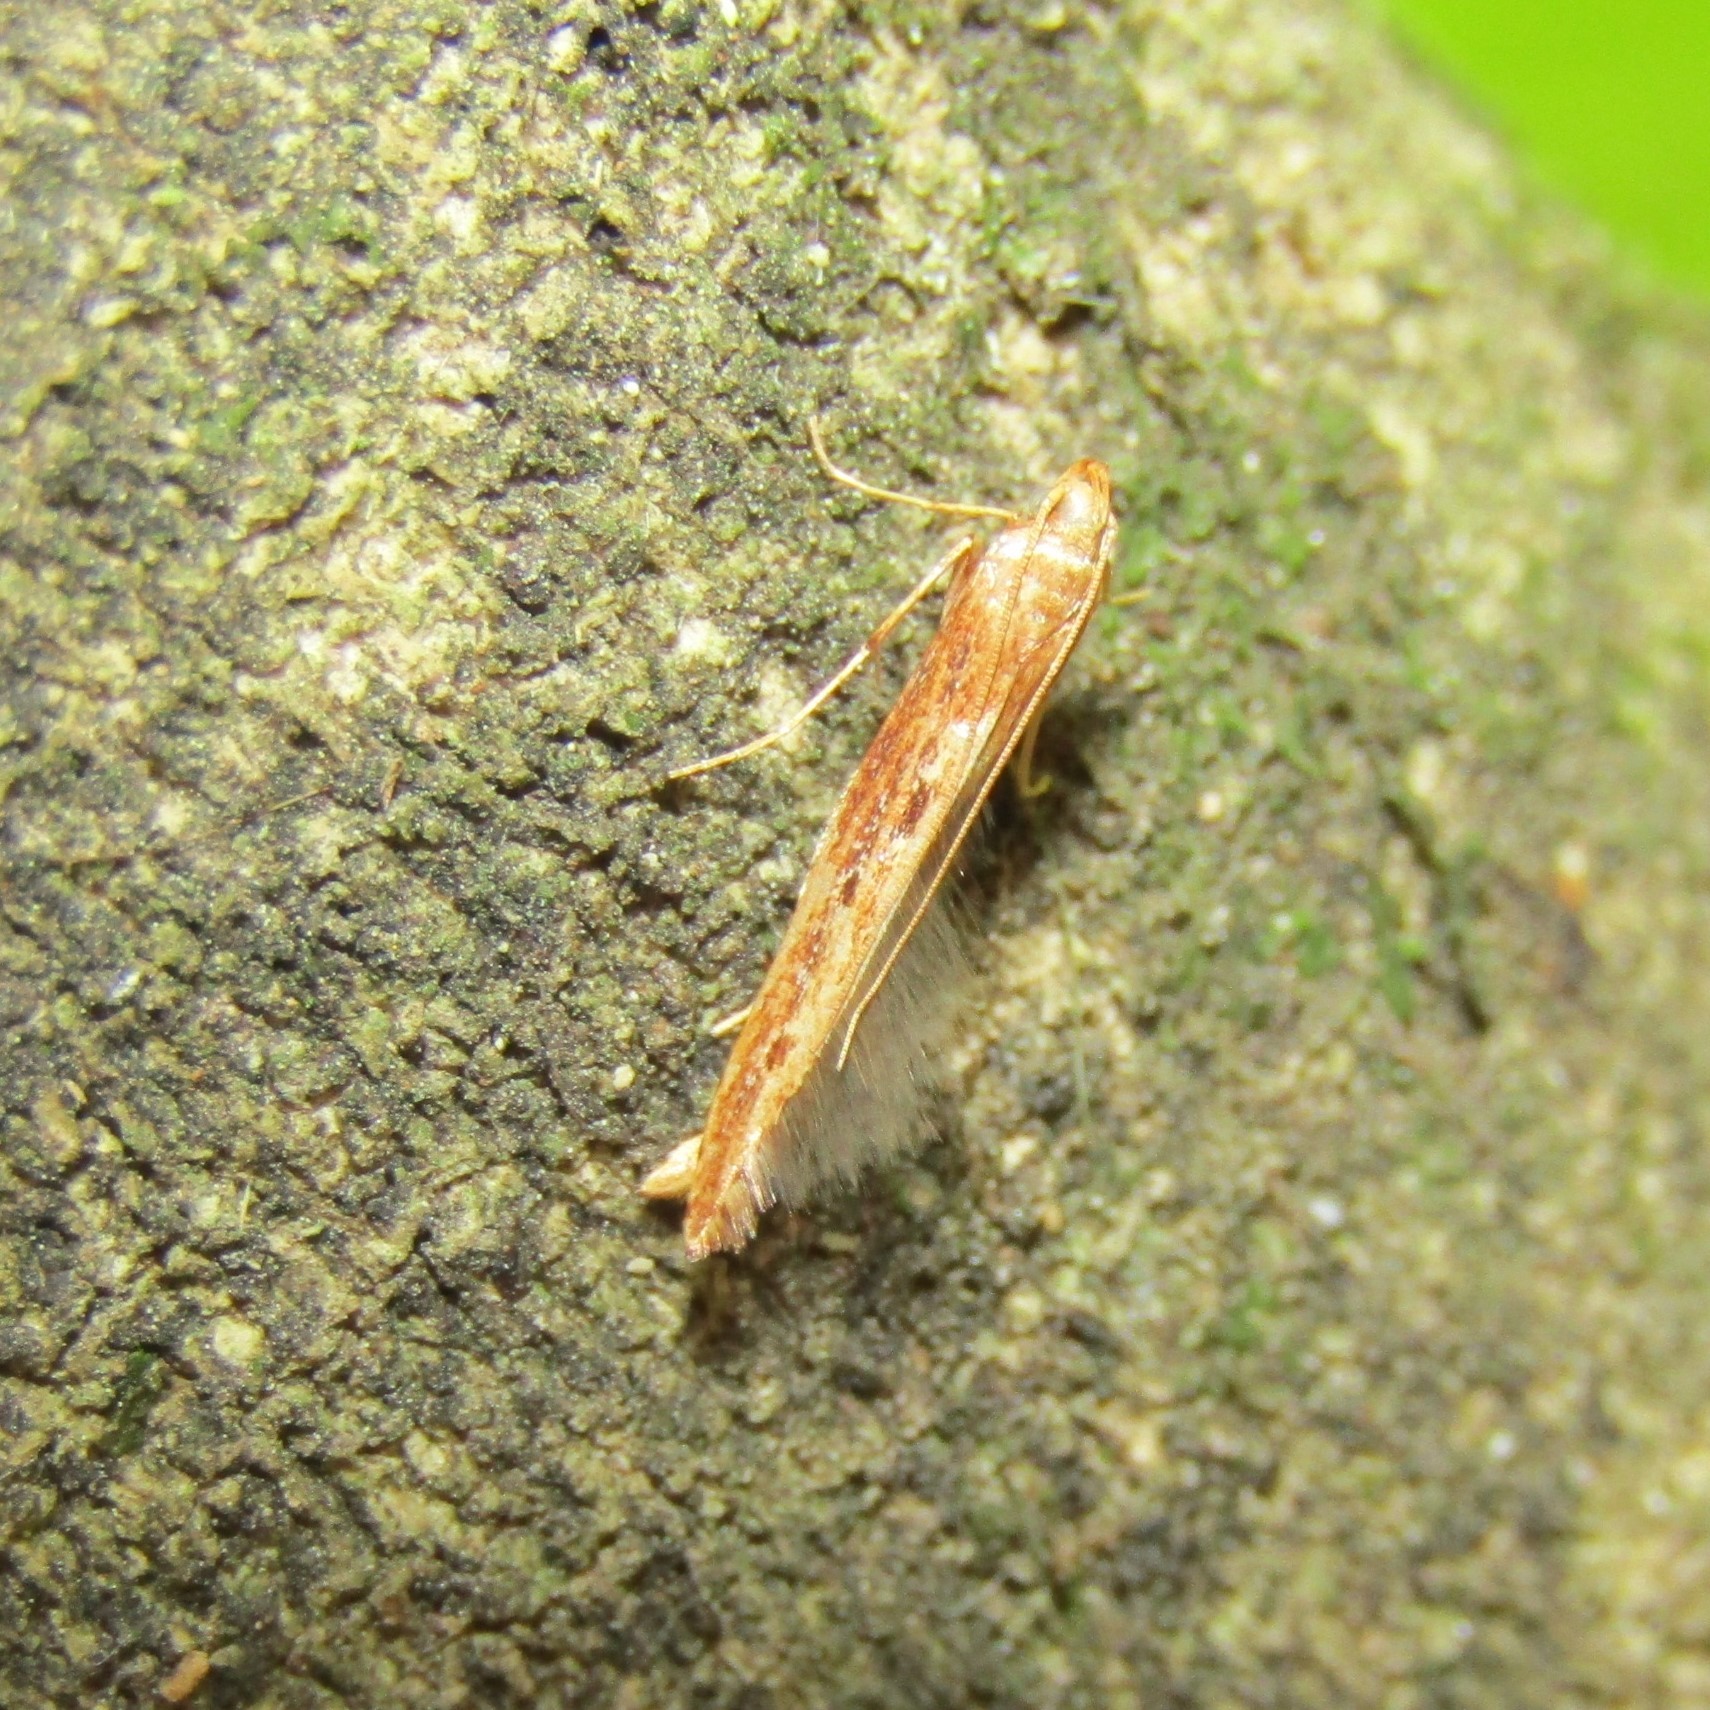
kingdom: Animalia
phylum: Arthropoda
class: Insecta
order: Lepidoptera
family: Batrachedridae
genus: Batrachedra
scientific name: Batrachedra agaura
